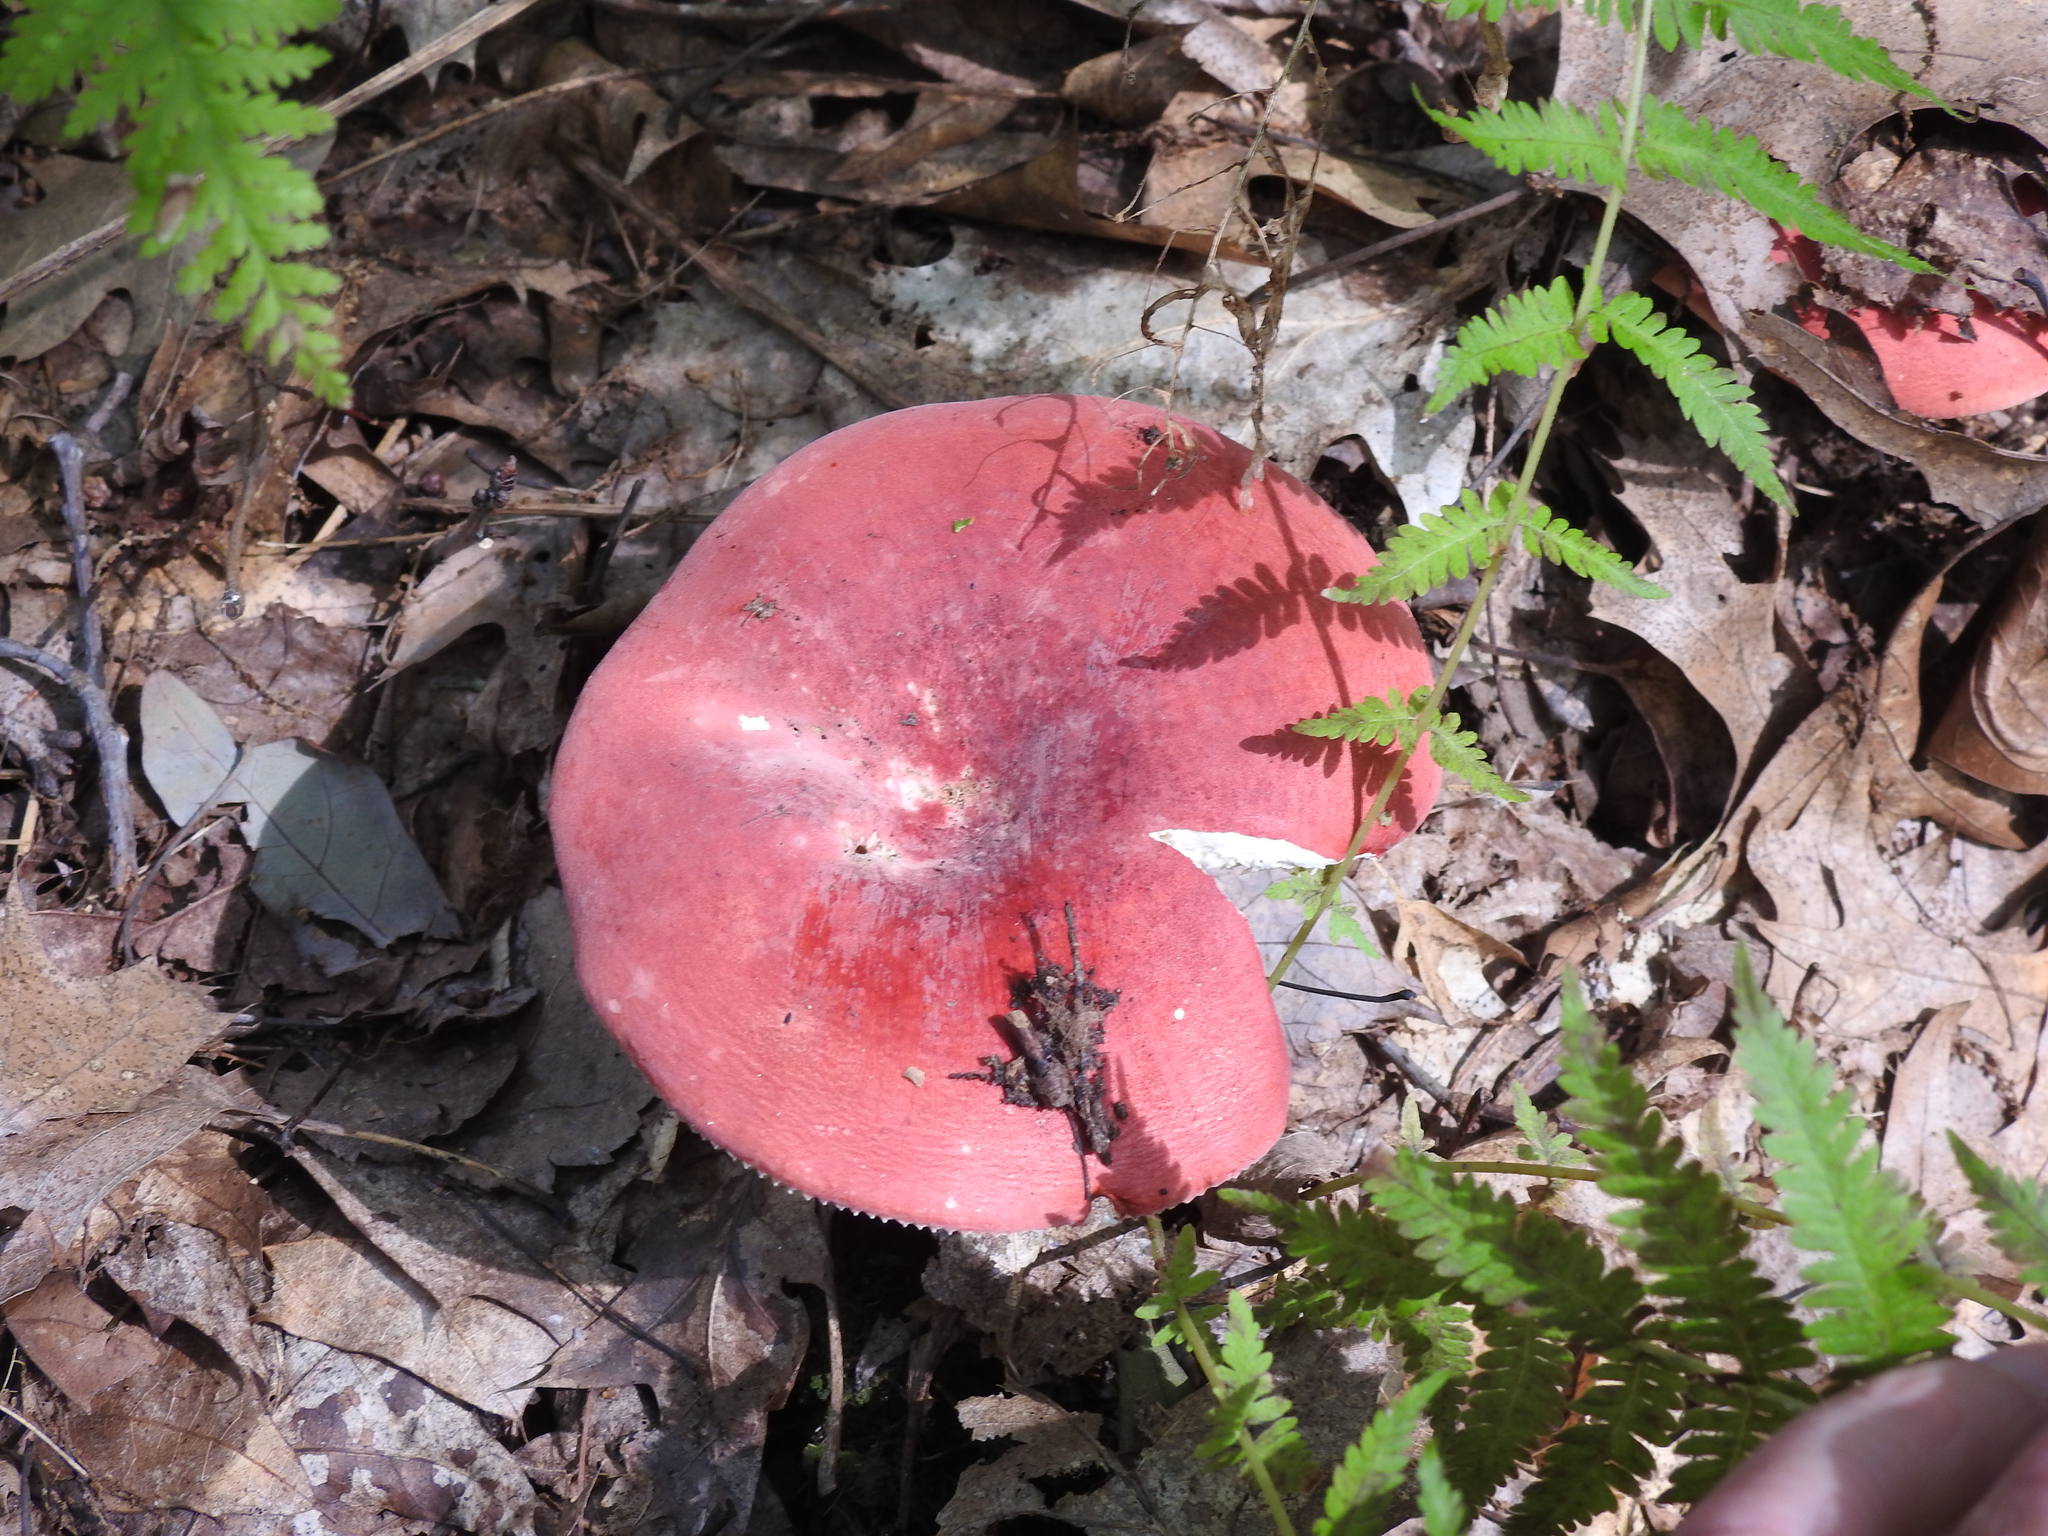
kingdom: Fungi
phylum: Basidiomycota
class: Agaricomycetes
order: Russulales
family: Russulaceae
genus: Russula
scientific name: Russula
